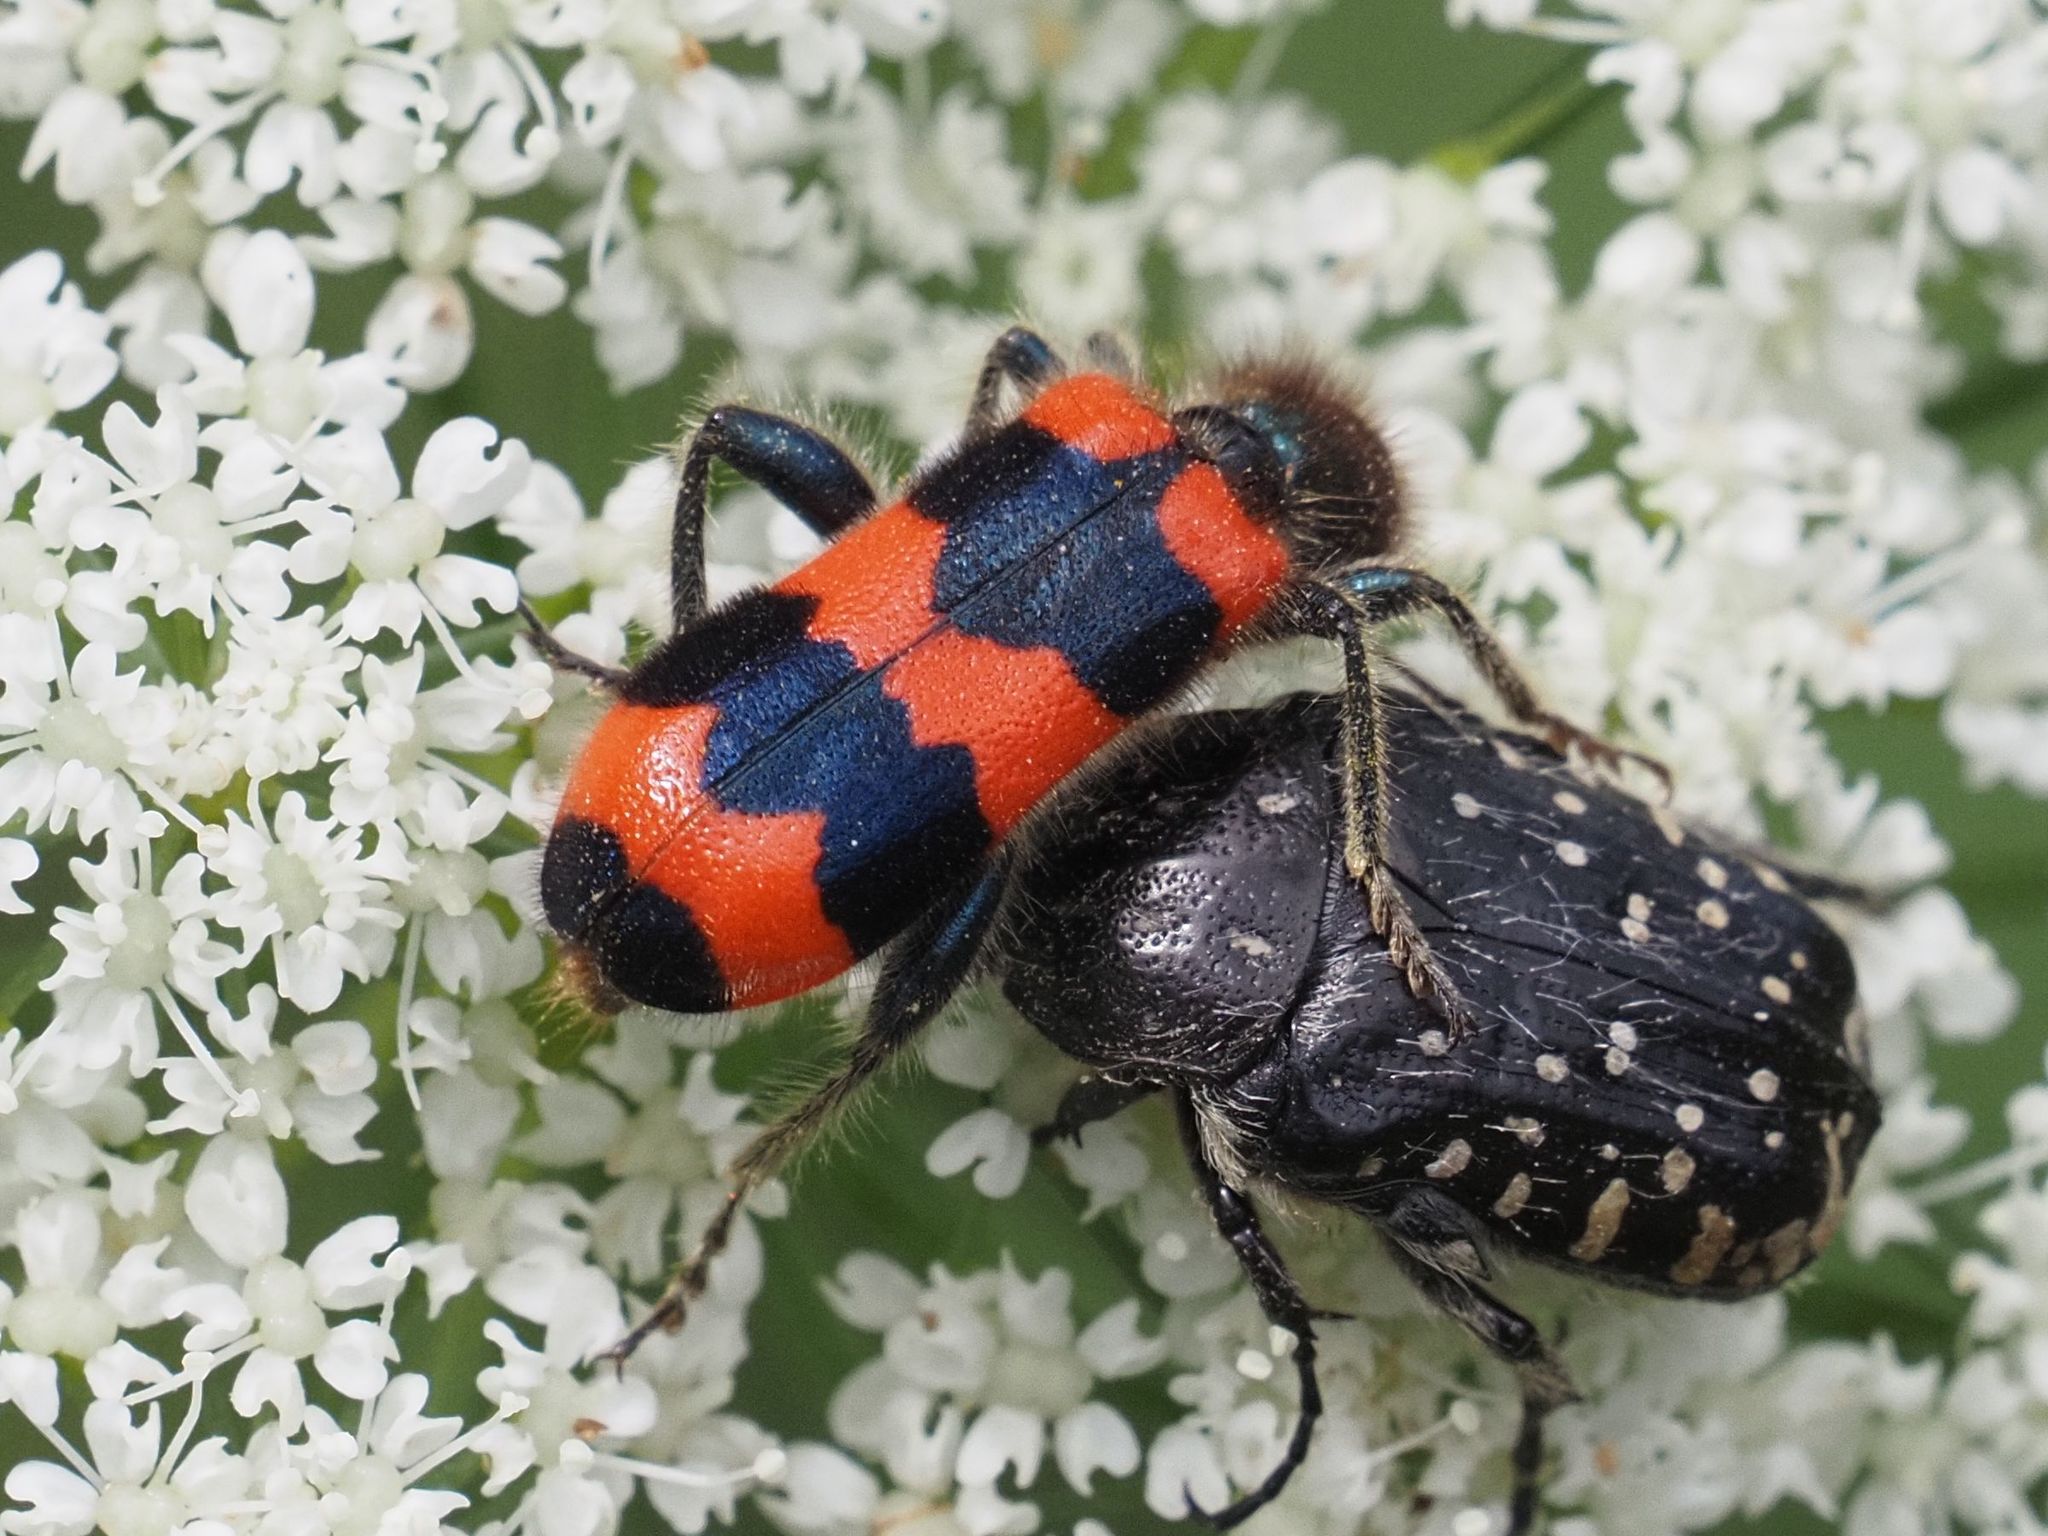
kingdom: Animalia
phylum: Arthropoda
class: Insecta
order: Coleoptera
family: Cleridae
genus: Trichodes
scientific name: Trichodes apiarius
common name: Bee-eating beetle
